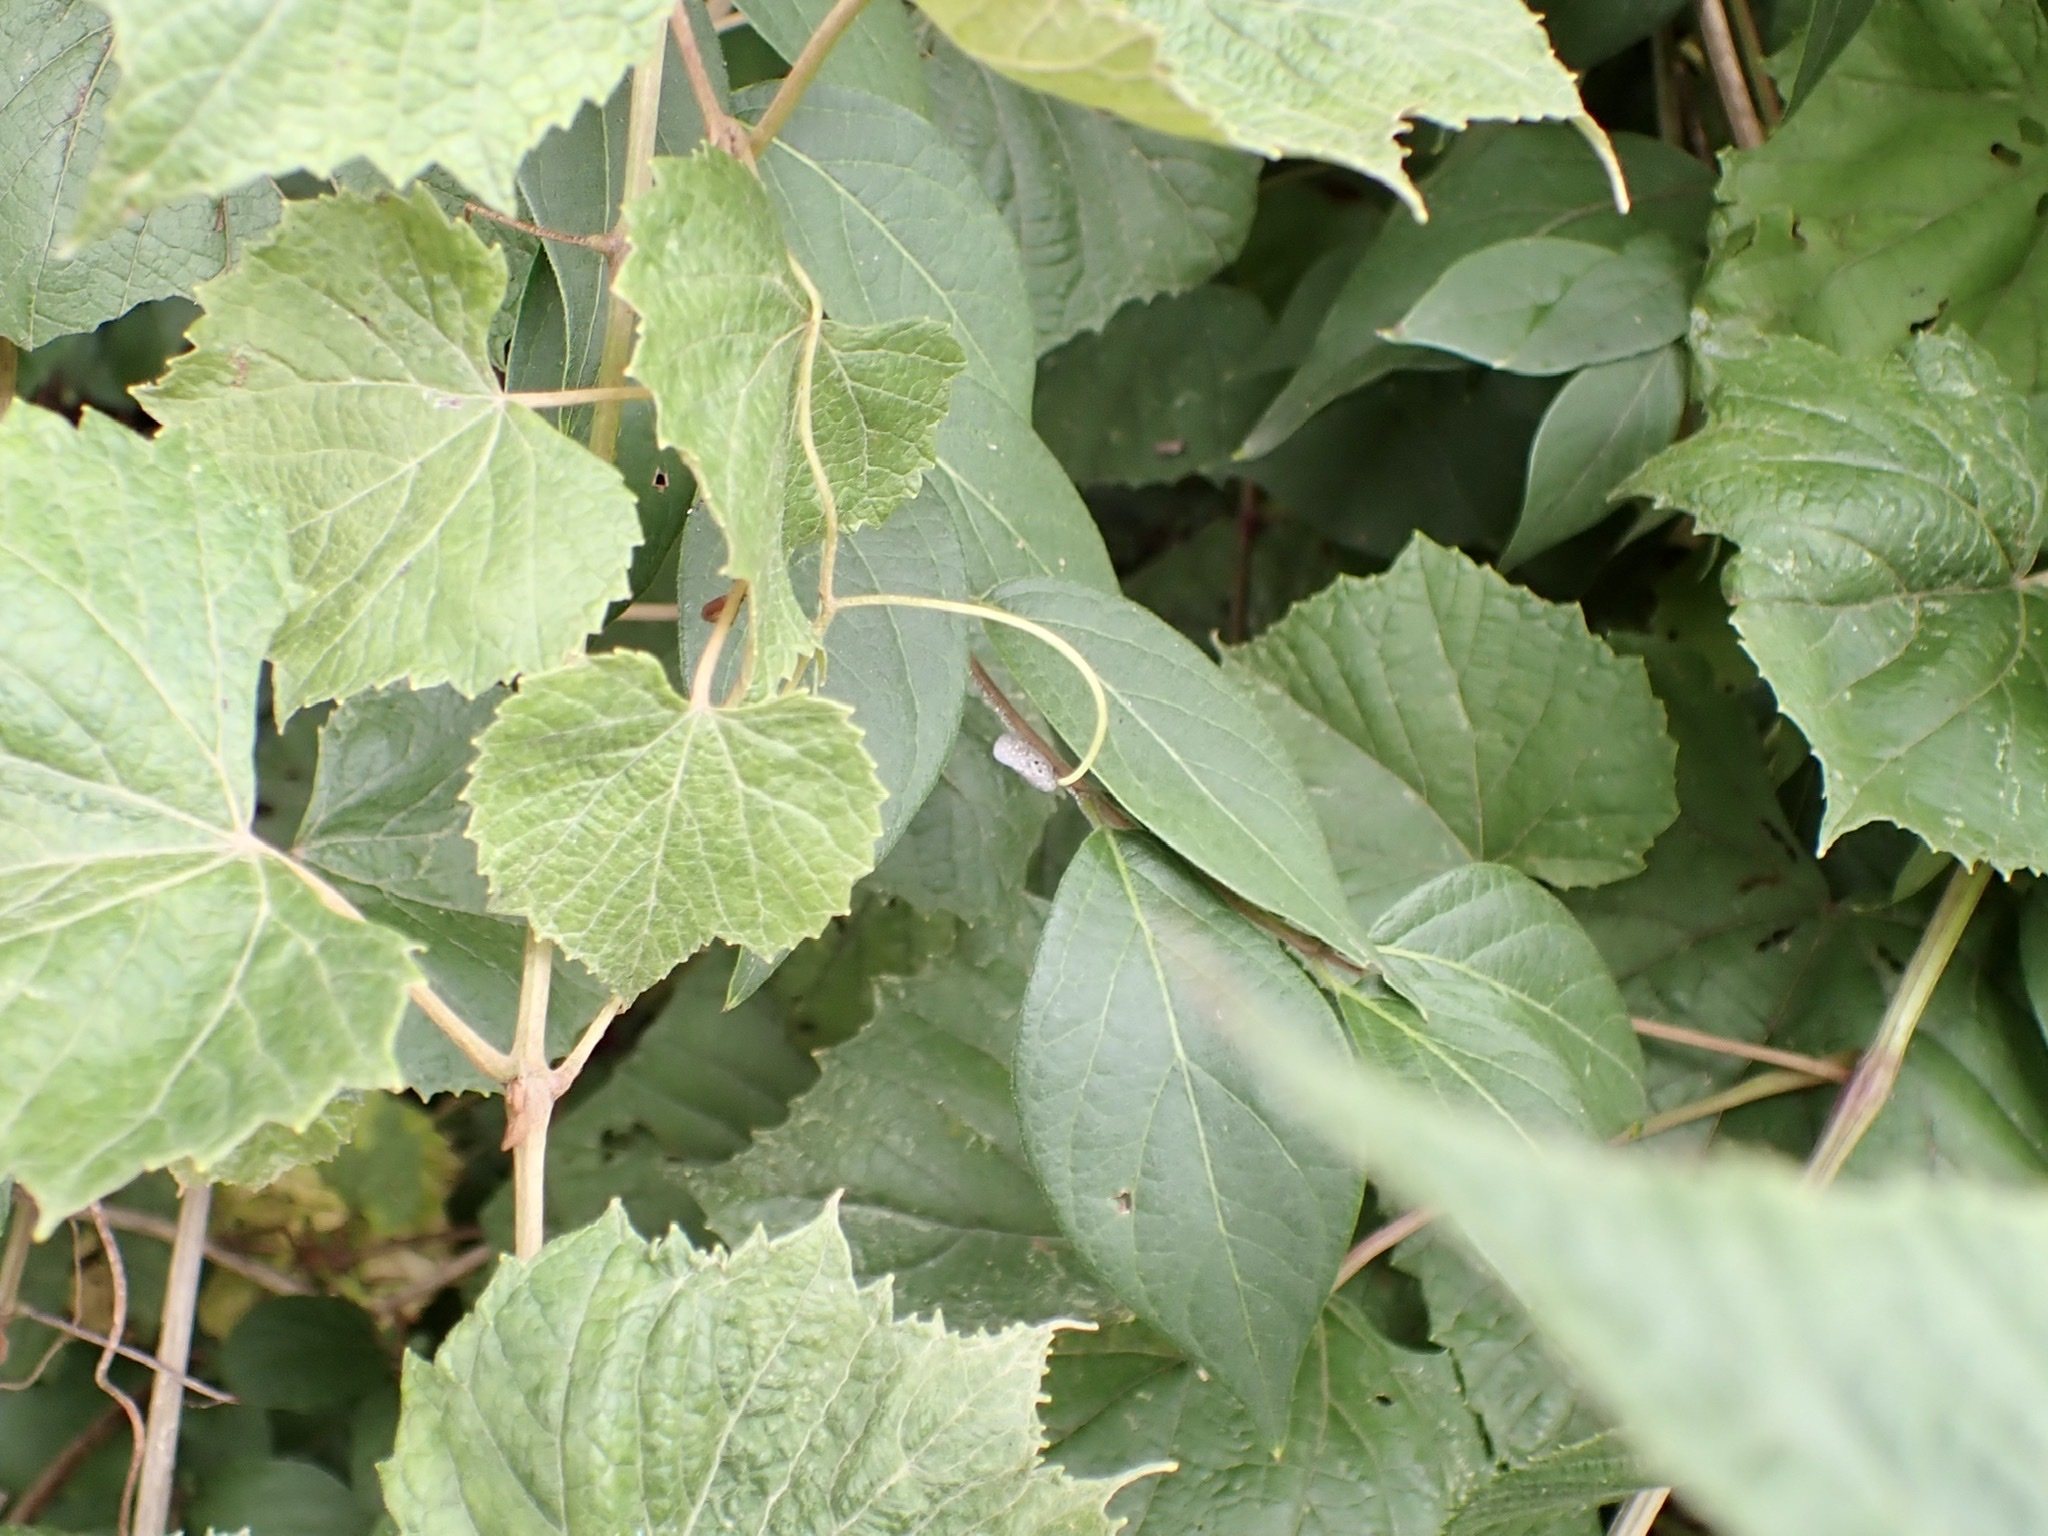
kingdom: Animalia
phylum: Arthropoda
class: Insecta
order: Hemiptera
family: Flatidae
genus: Metcalfa
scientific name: Metcalfa pruinosa
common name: Citrus flatid planthopper
